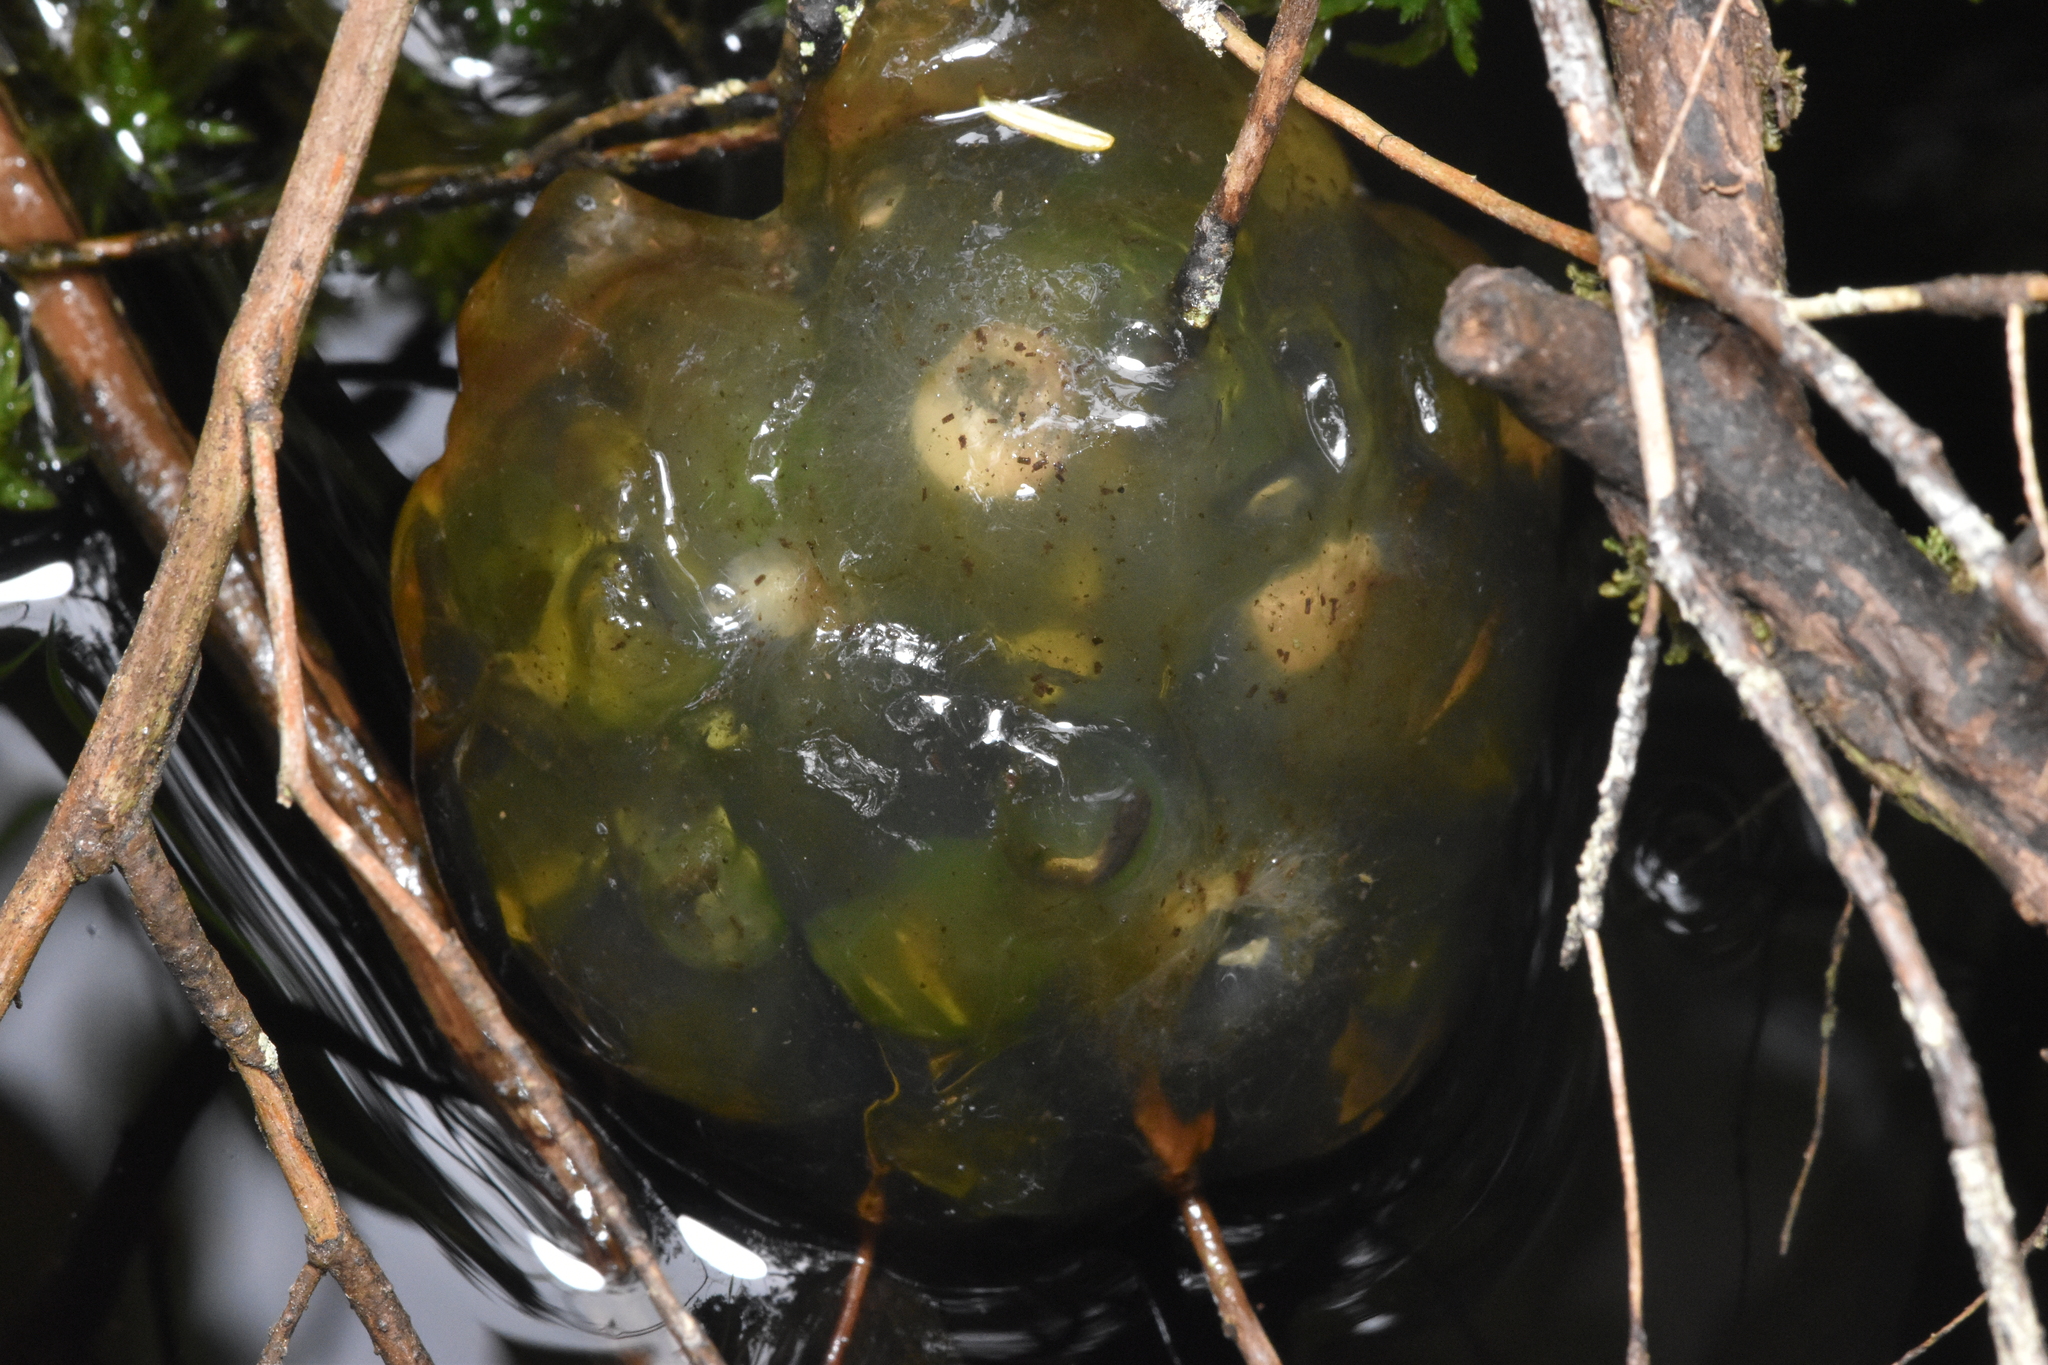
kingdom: Plantae
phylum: Chlorophyta
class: Chlorophyceae
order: Chlamydomonadales
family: Chlorococcaceae
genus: Oophila
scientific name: Oophila amblystomatis
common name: Salamander algae
